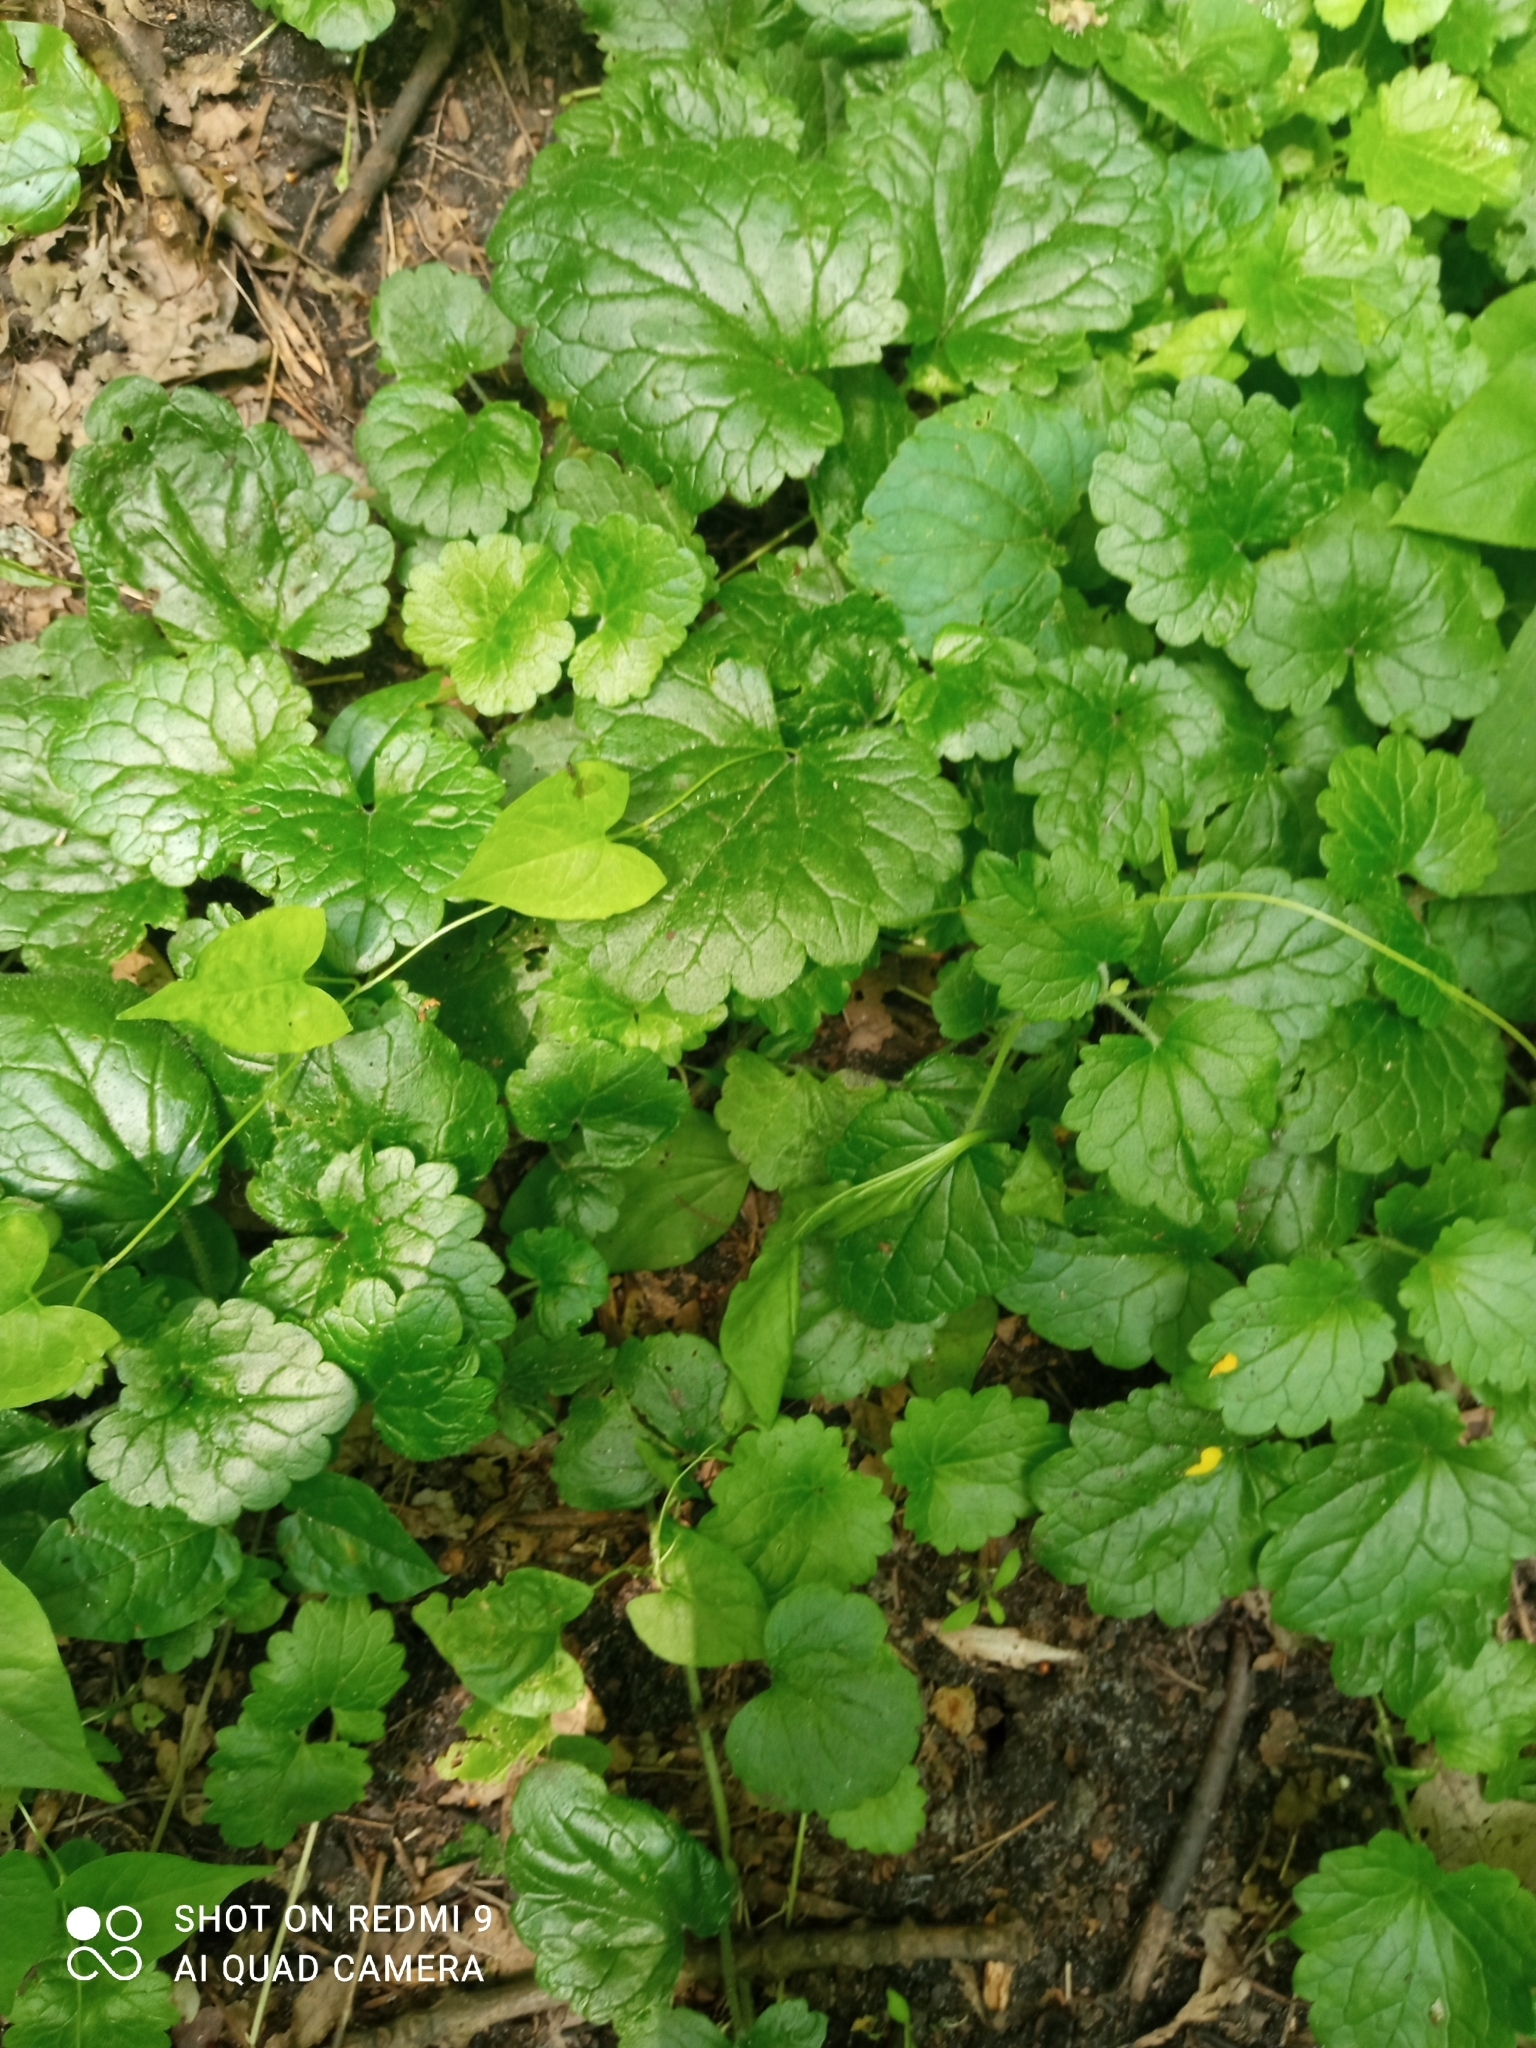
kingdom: Plantae
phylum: Tracheophyta
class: Magnoliopsida
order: Lamiales
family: Lamiaceae
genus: Glechoma
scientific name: Glechoma hederacea
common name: Ground ivy
